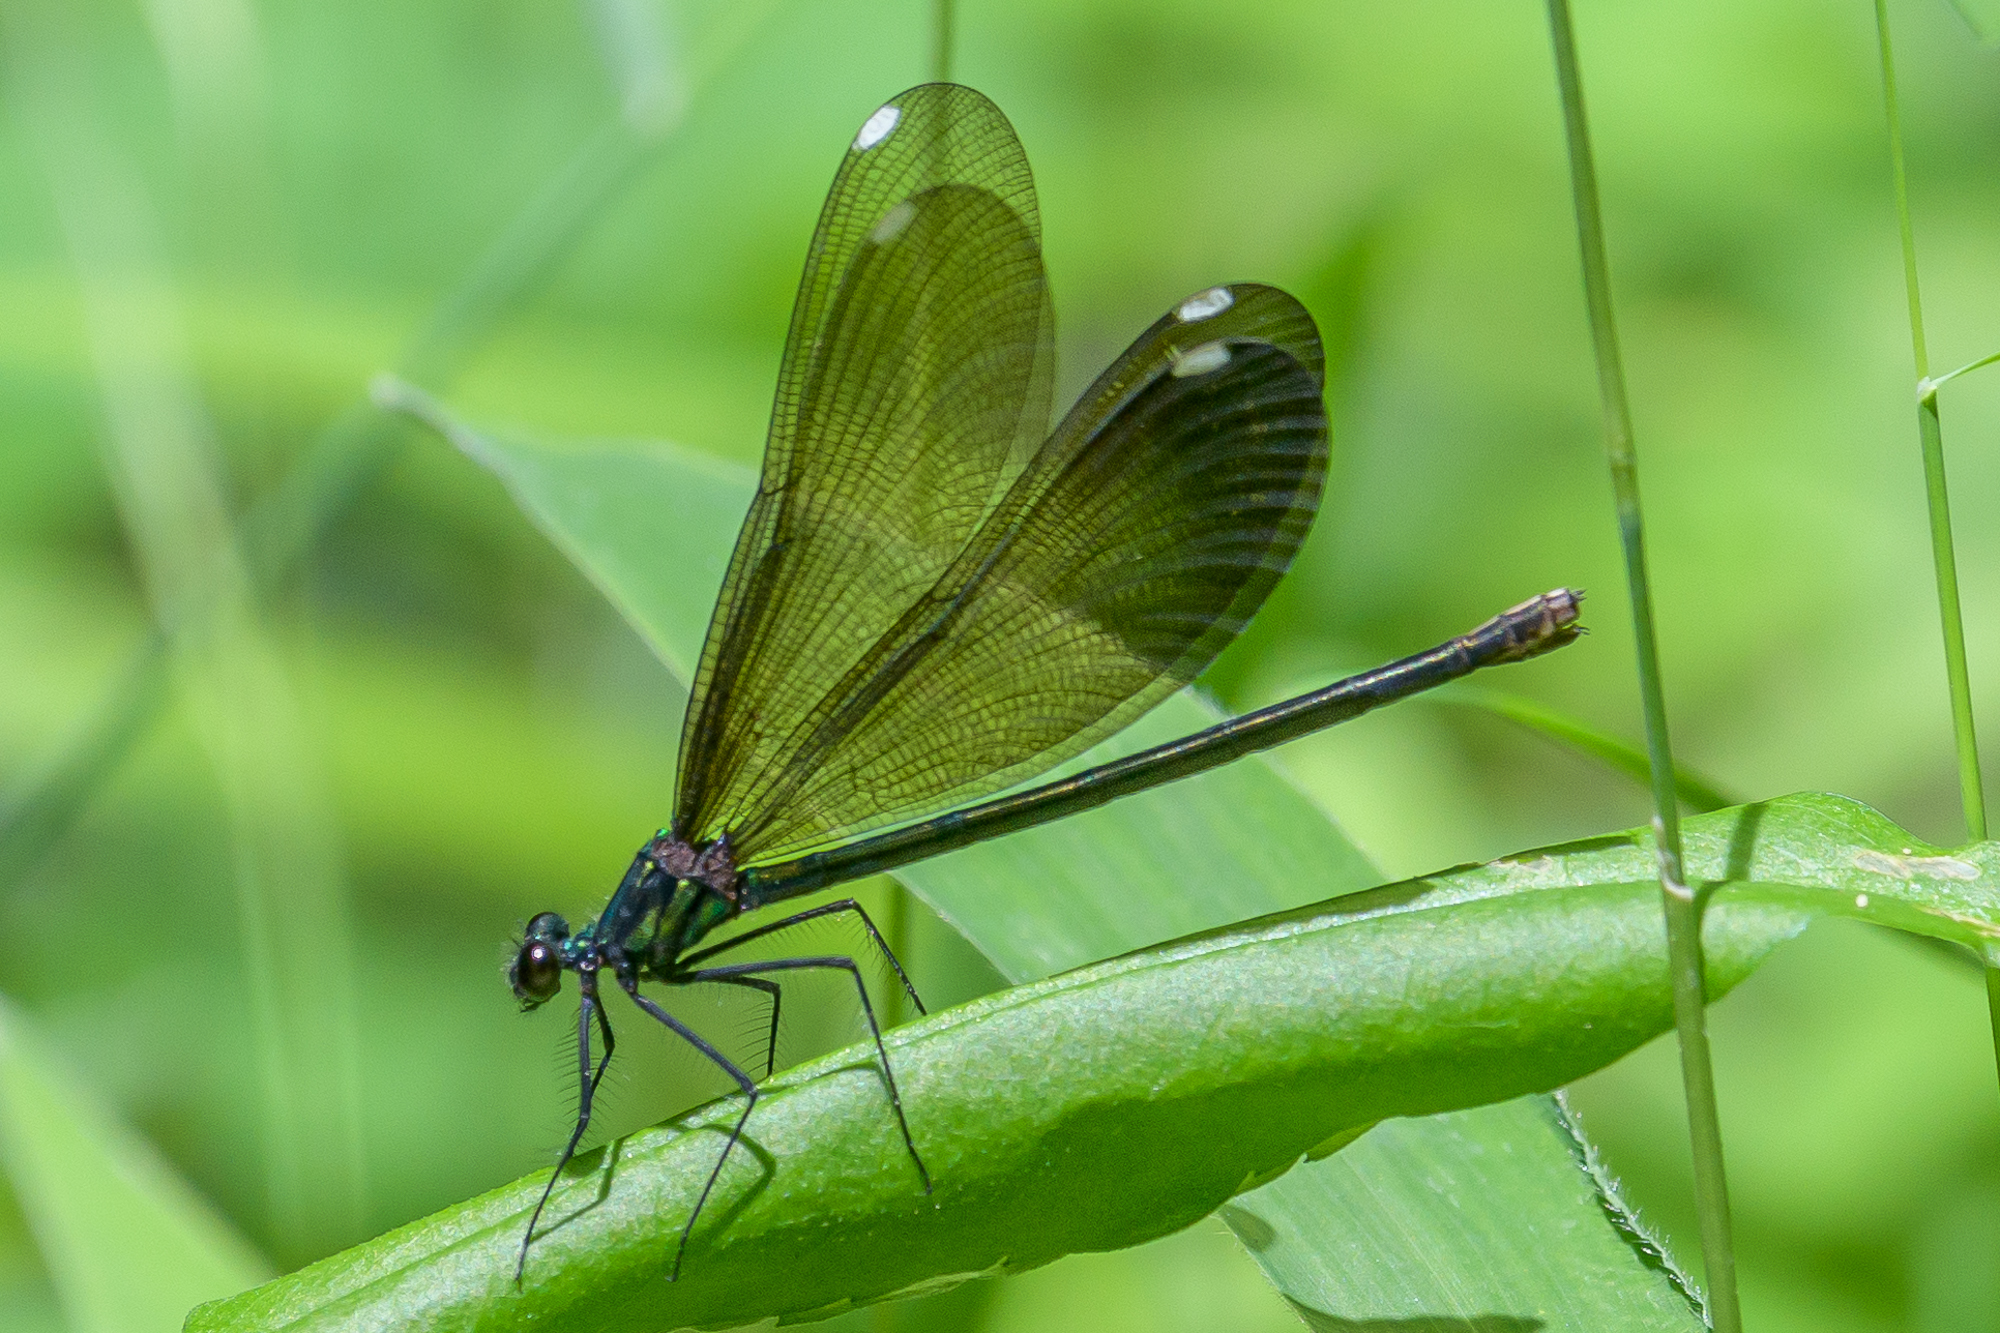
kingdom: Animalia
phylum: Arthropoda
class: Insecta
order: Odonata
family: Calopterygidae
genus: Calopteryx
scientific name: Calopteryx maculata
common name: Ebony jewelwing
